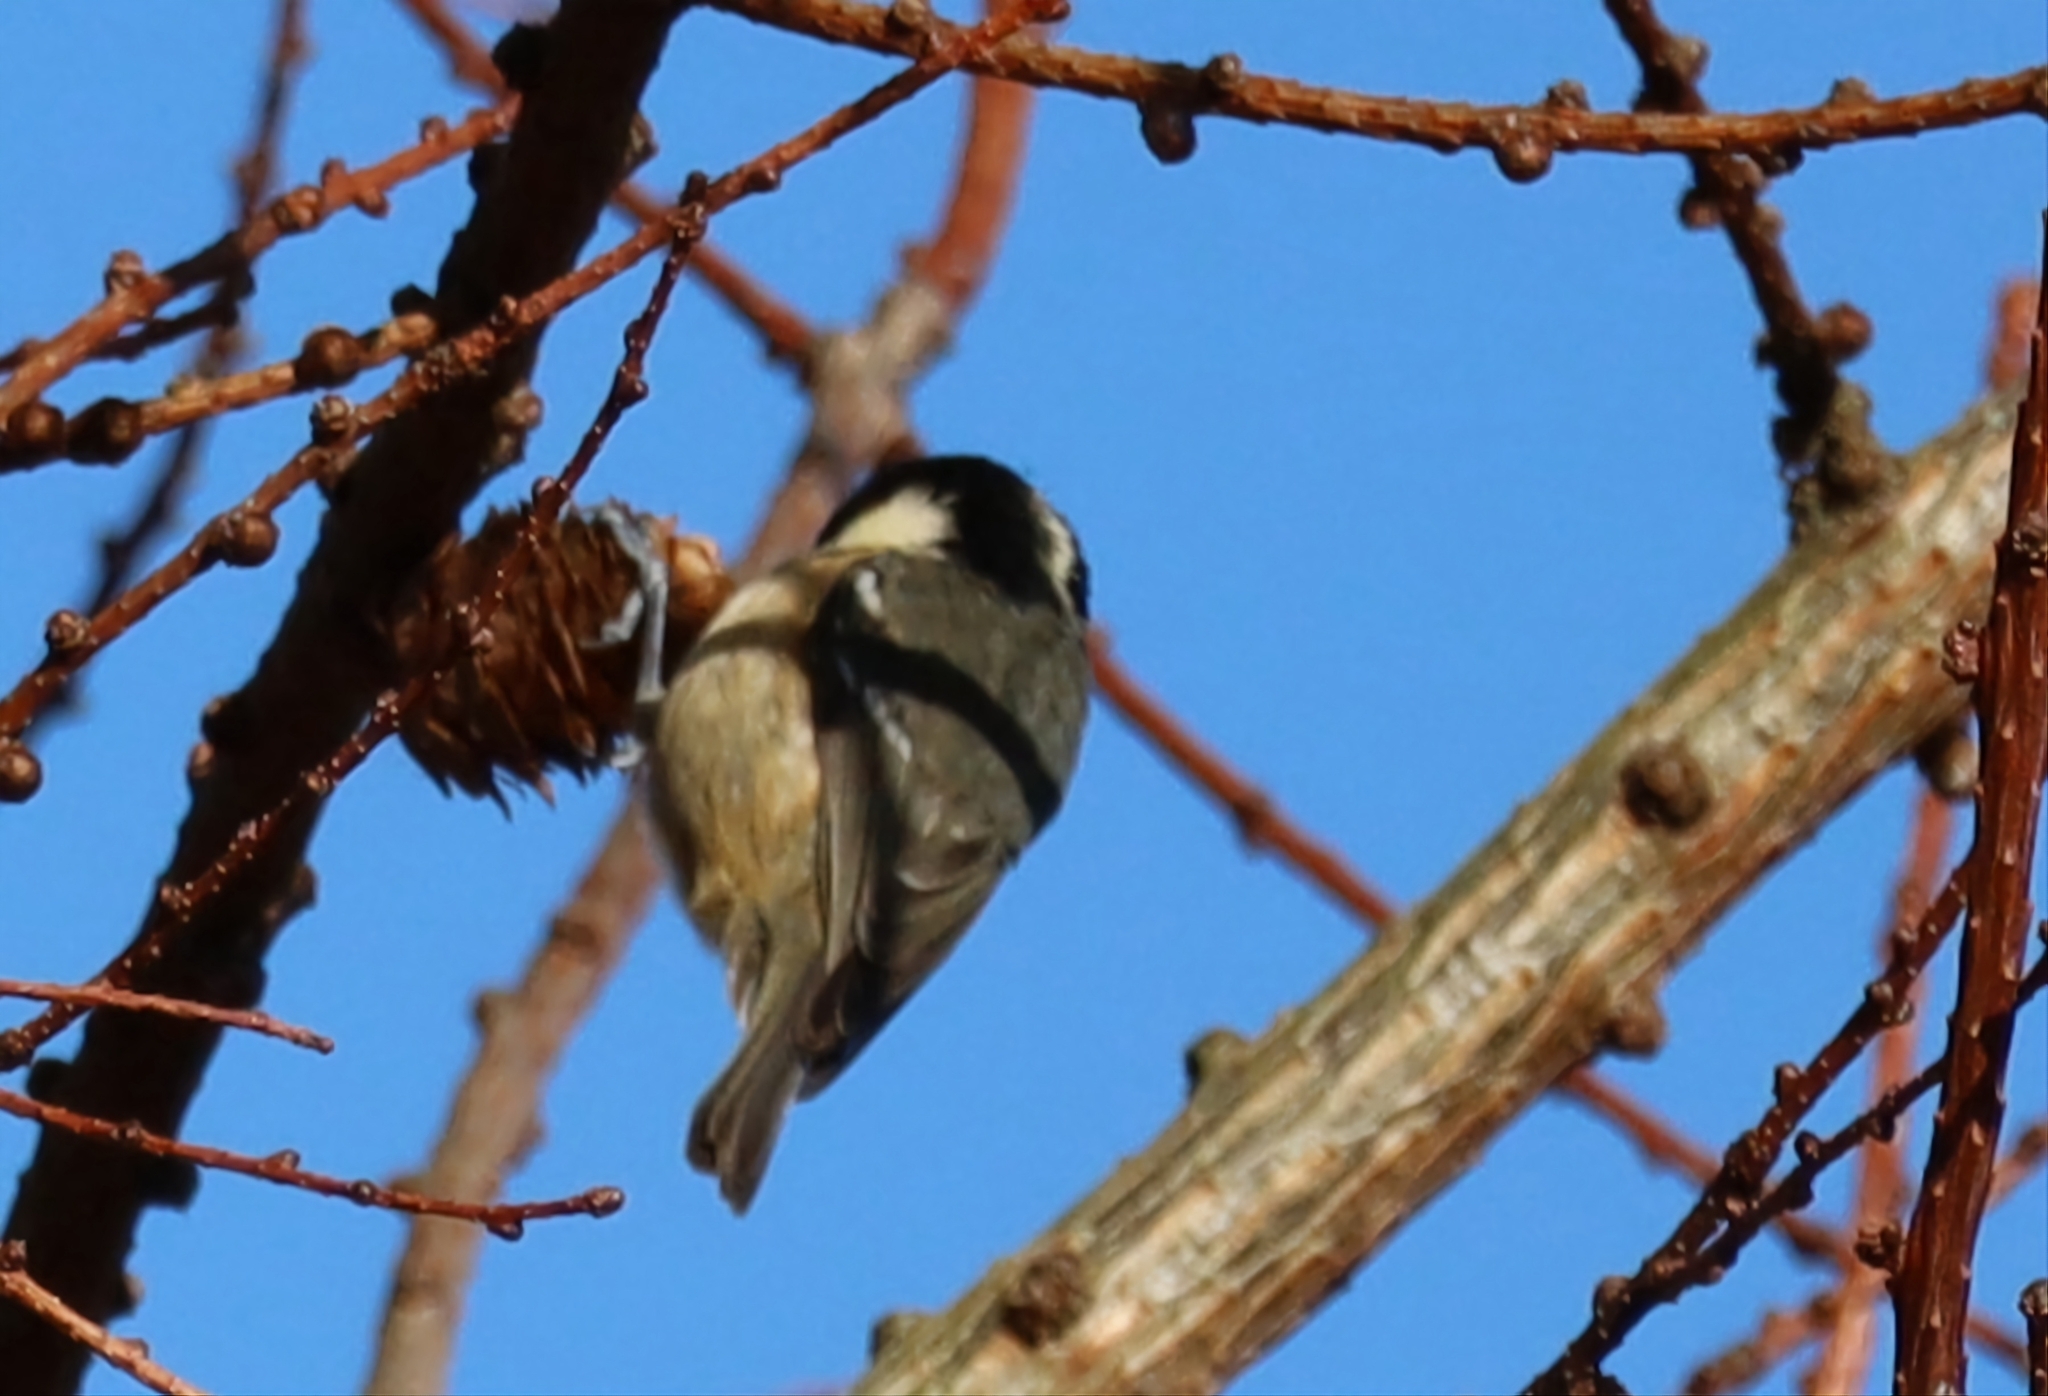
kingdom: Animalia
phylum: Chordata
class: Aves
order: Passeriformes
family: Paridae
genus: Periparus
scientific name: Periparus ater
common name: Coal tit
